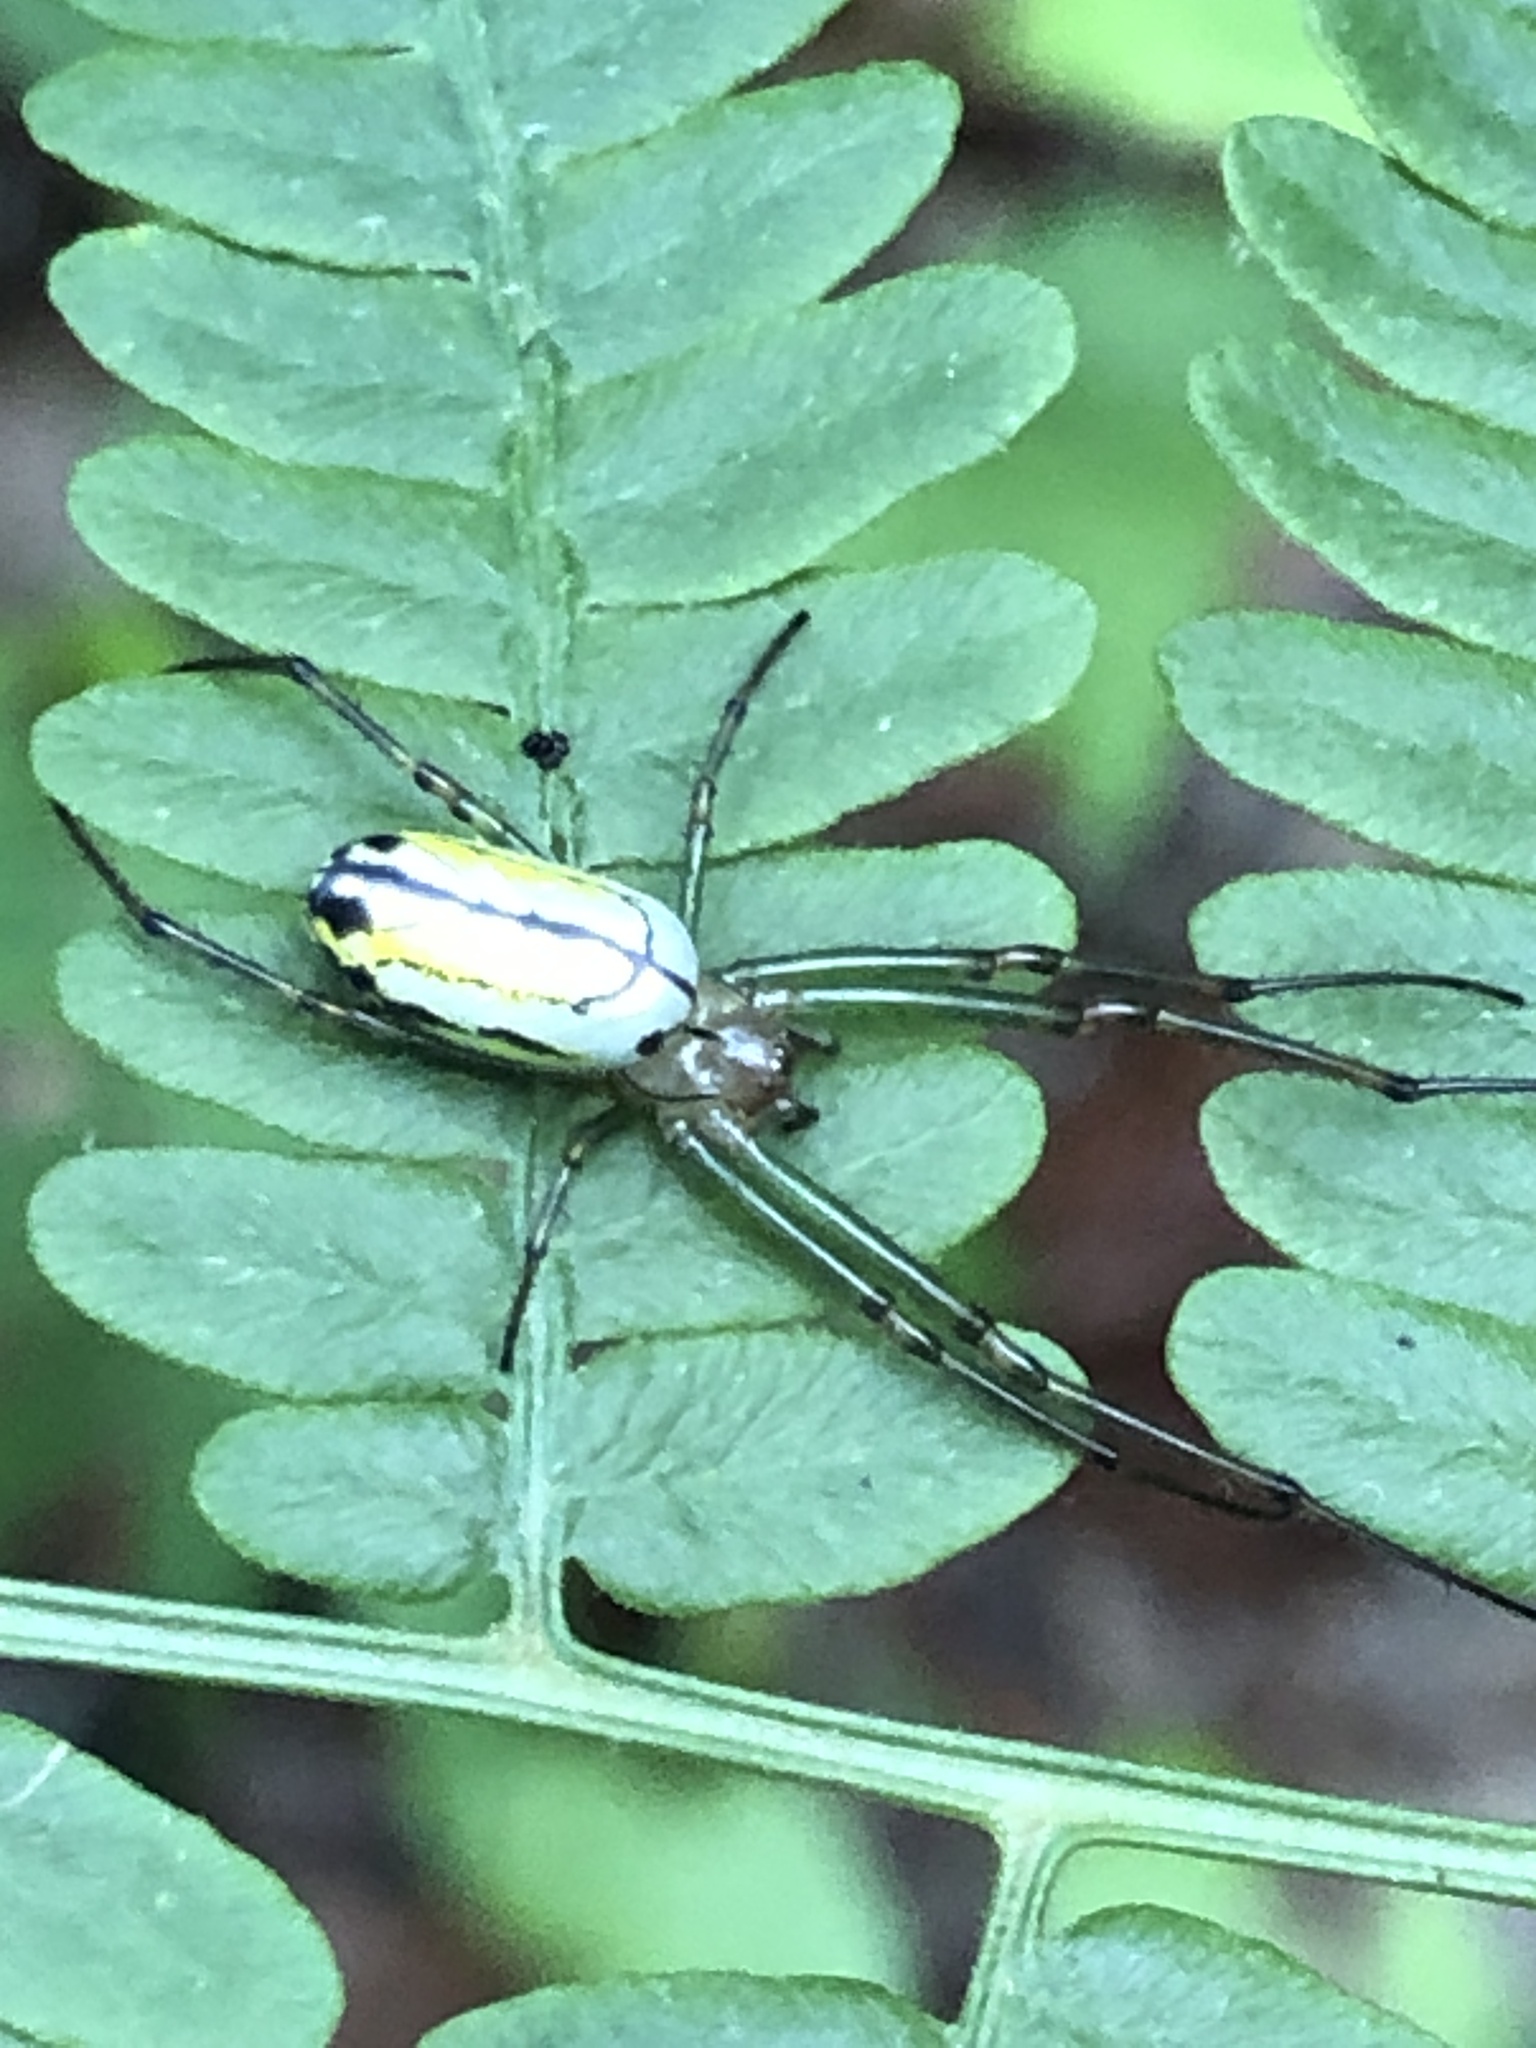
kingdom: Animalia
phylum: Arthropoda
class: Arachnida
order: Araneae
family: Tetragnathidae
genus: Leucauge
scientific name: Leucauge venusta
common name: Longjawed orb weavers
